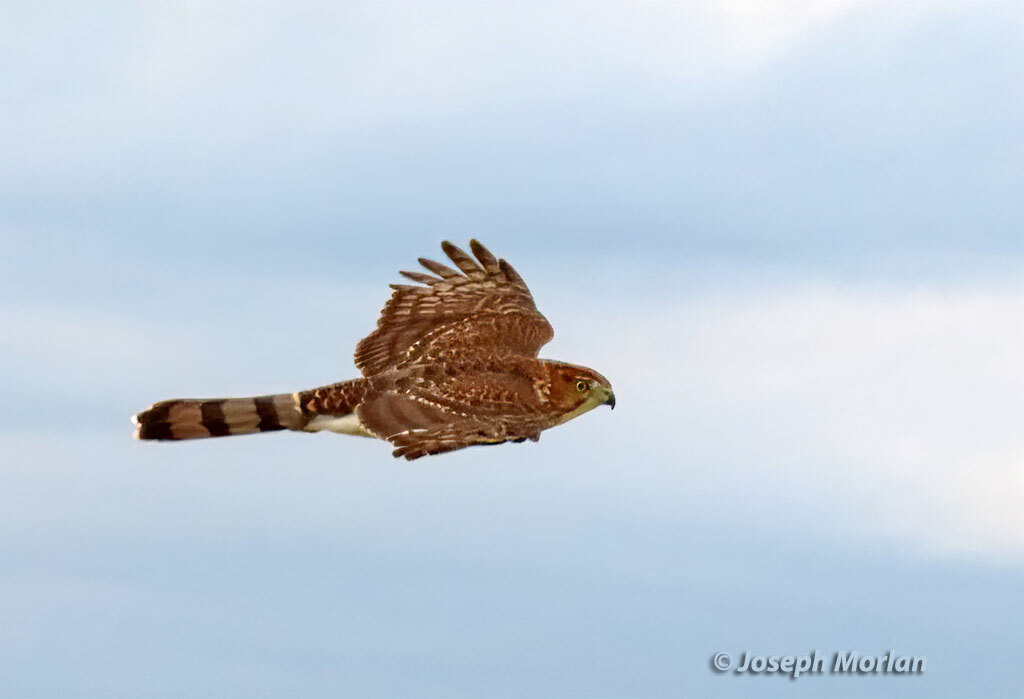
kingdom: Animalia
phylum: Chordata
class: Aves
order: Accipitriformes
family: Accipitridae
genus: Accipiter
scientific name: Accipiter cooperii
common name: Cooper's hawk
